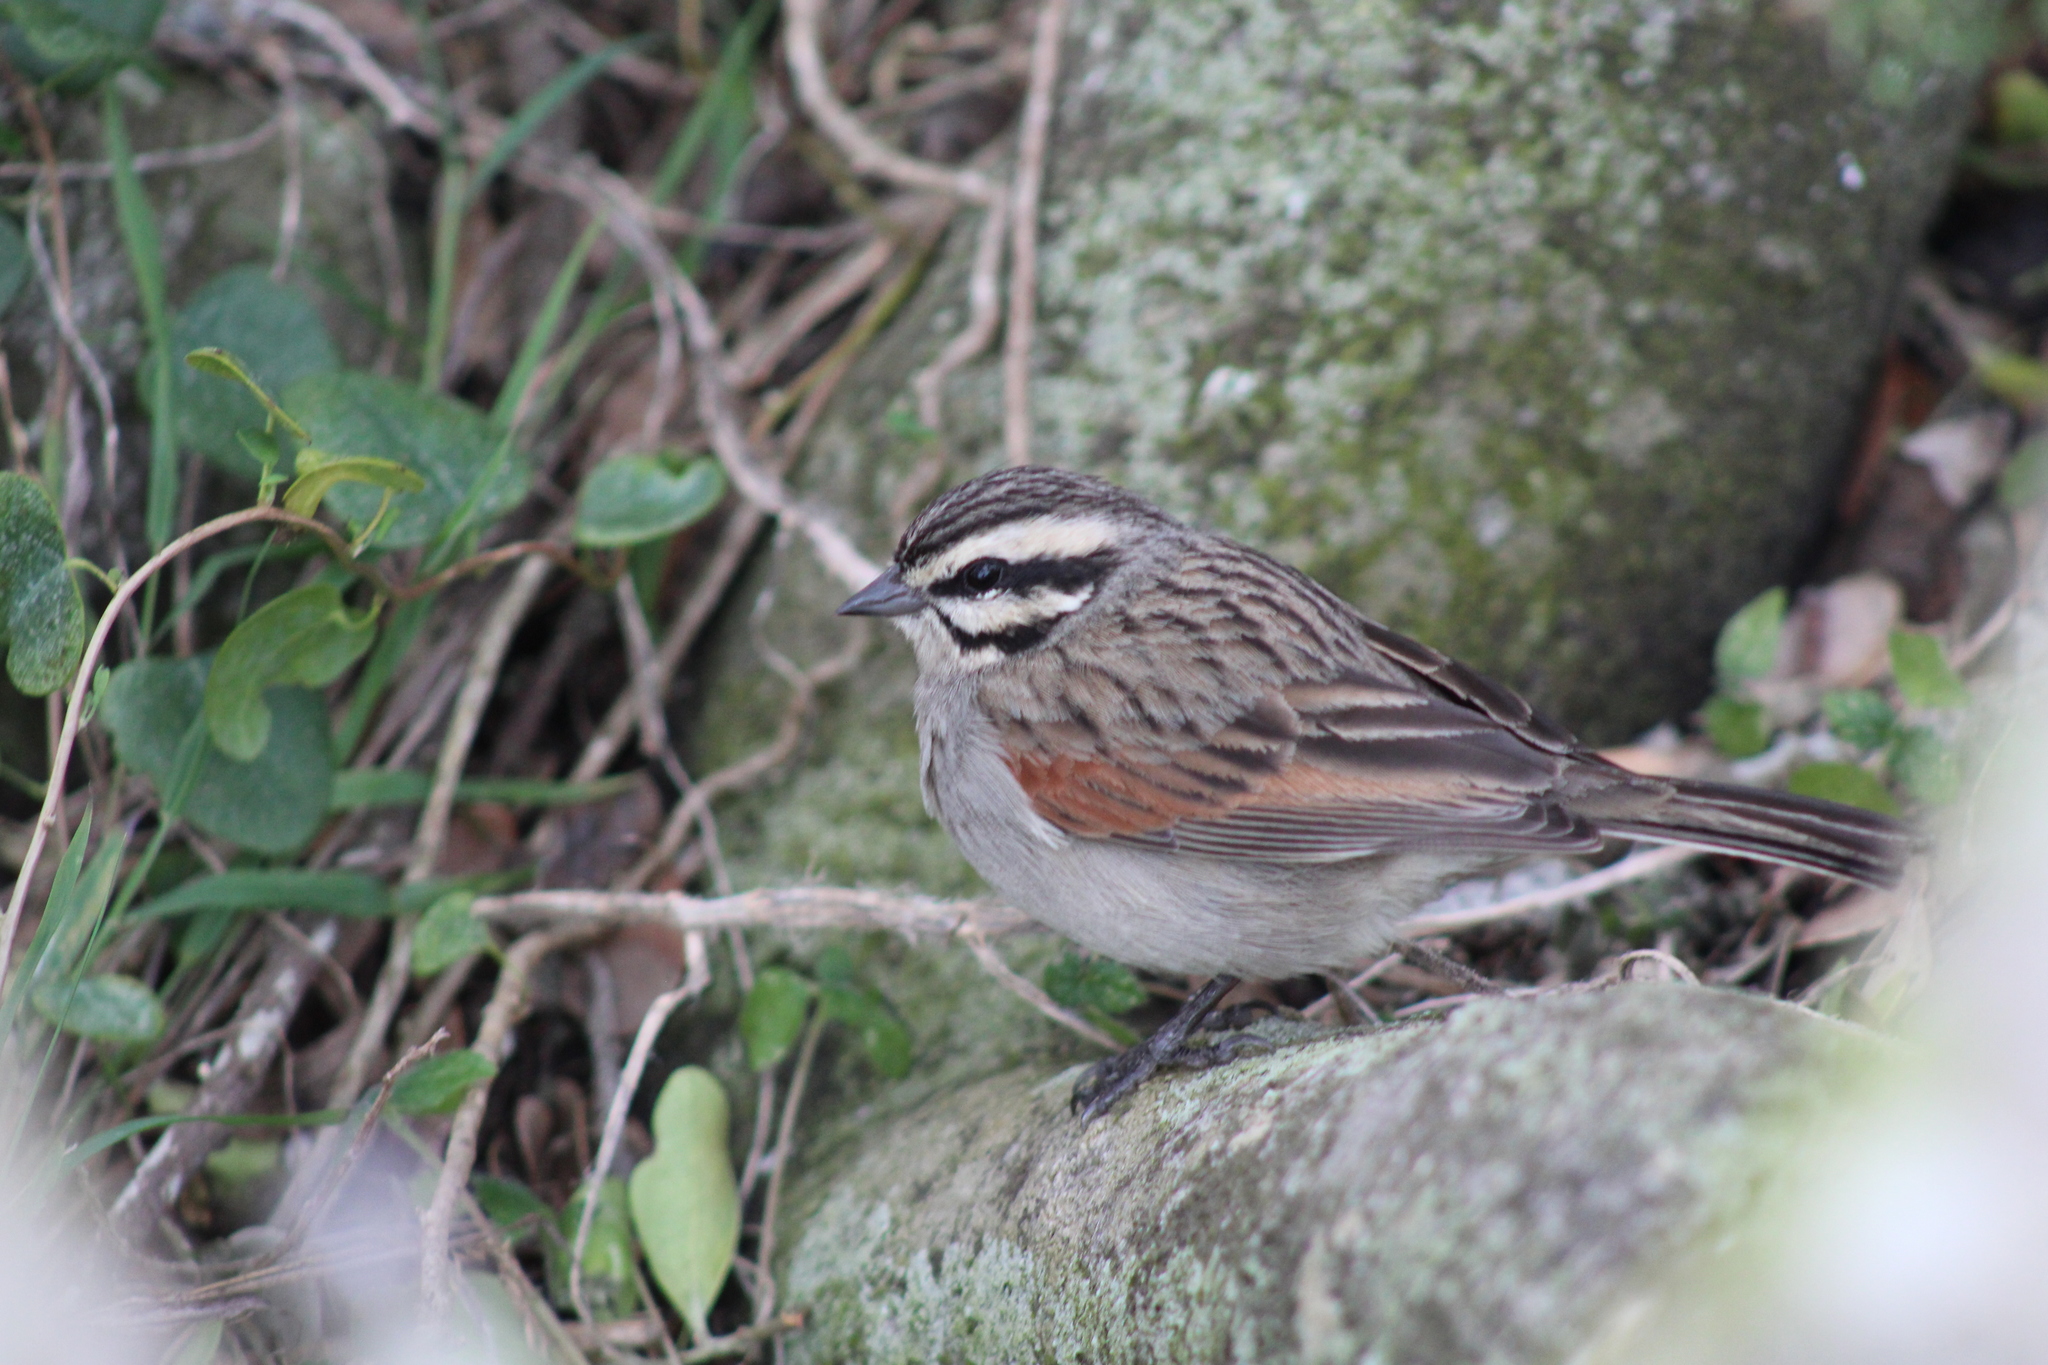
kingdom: Animalia
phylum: Chordata
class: Aves
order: Passeriformes
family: Emberizidae
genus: Emberiza
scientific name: Emberiza capensis
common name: Cape bunting
